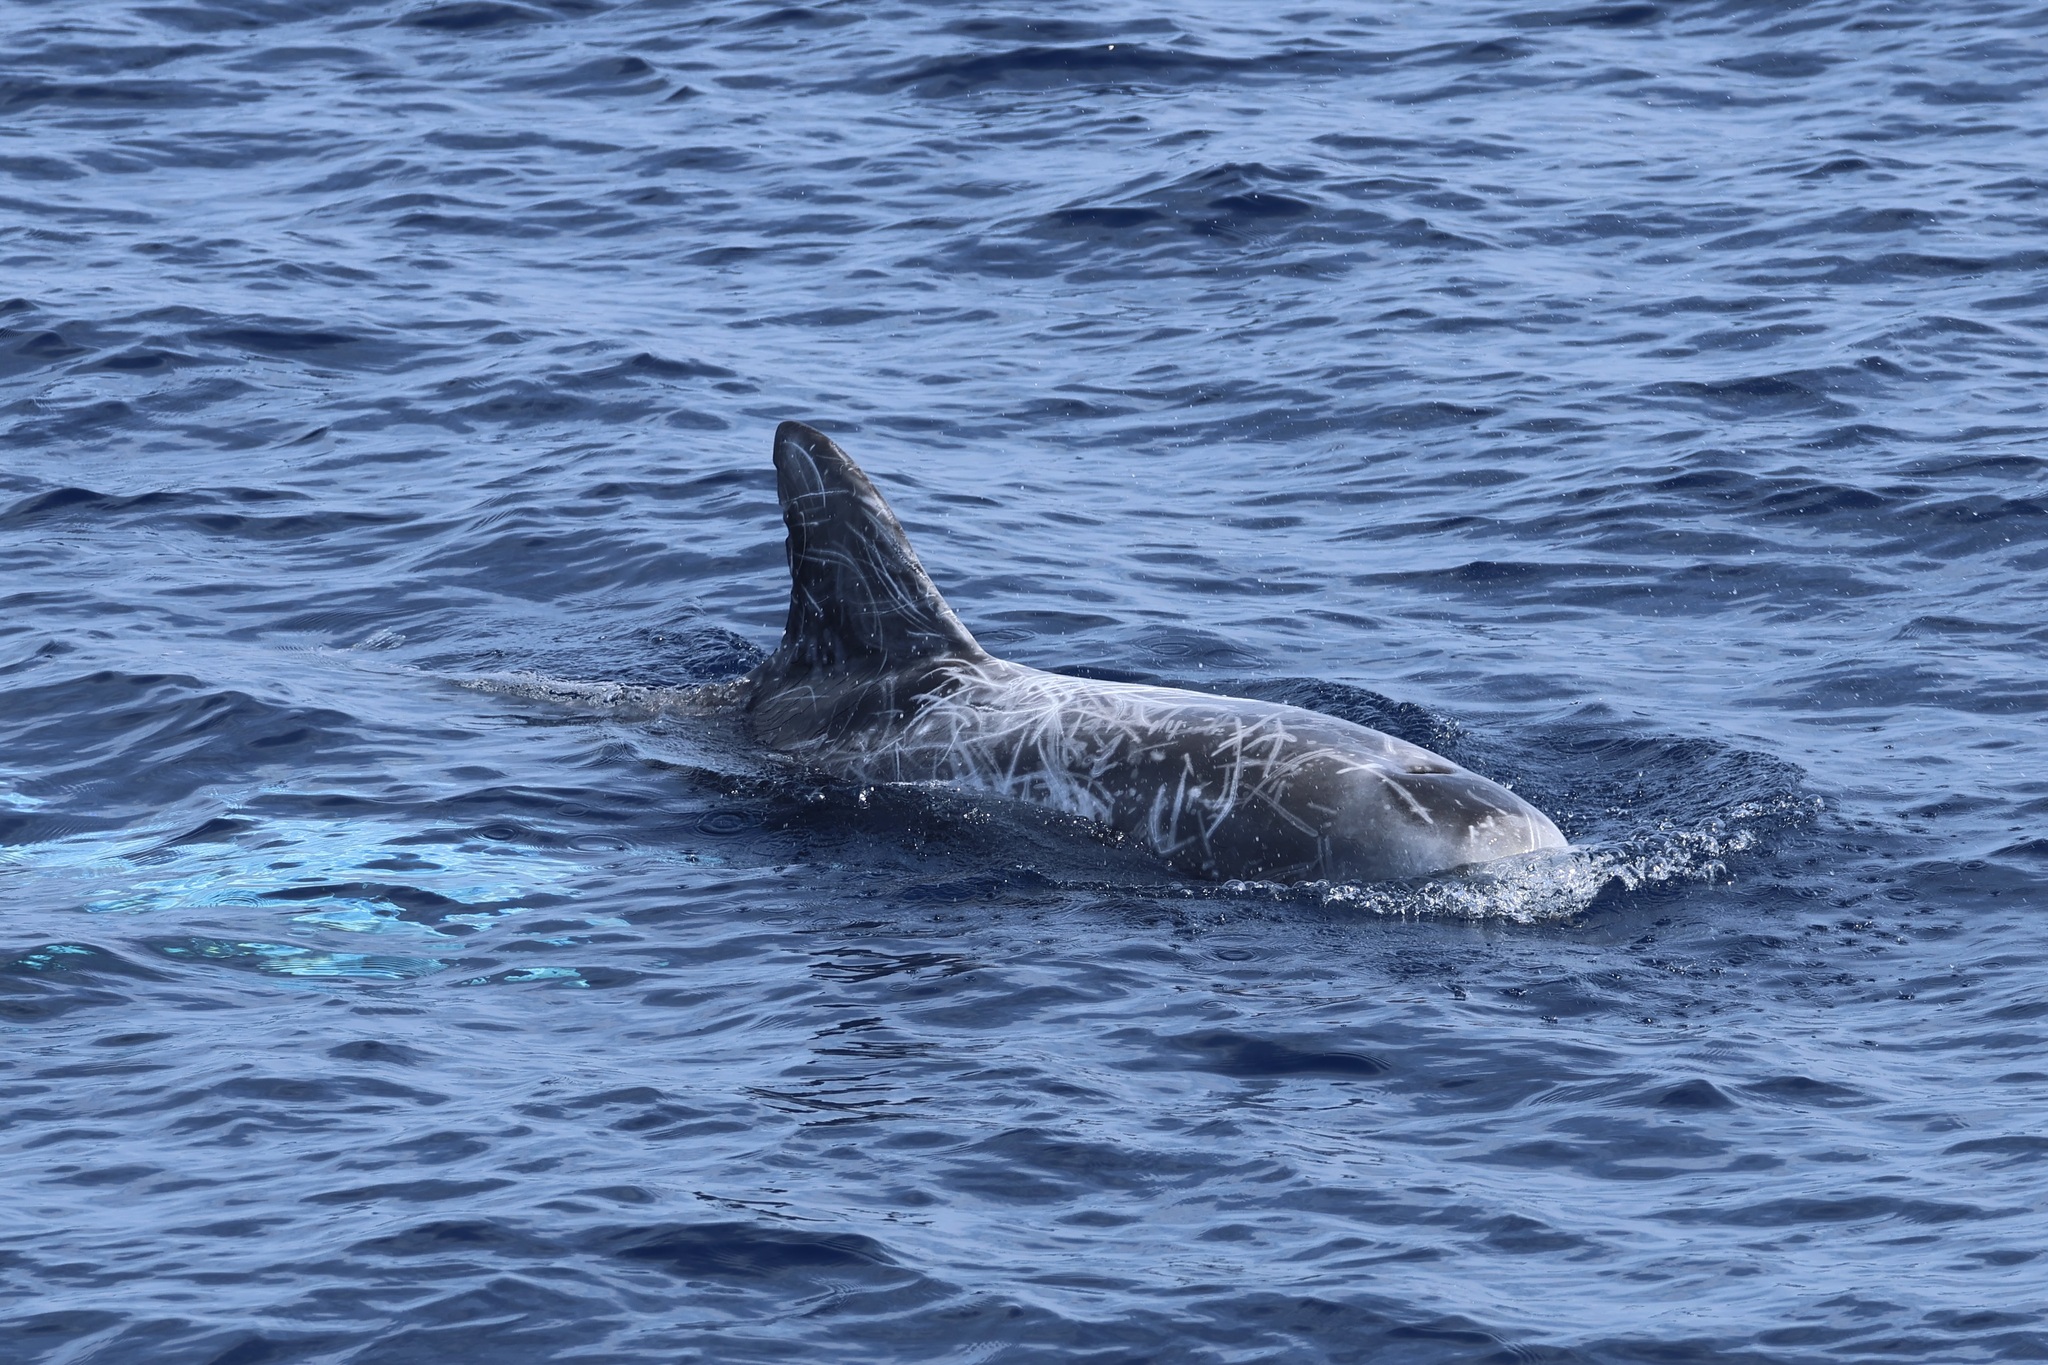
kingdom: Animalia
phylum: Chordata
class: Mammalia
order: Cetacea
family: Delphinidae
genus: Grampus
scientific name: Grampus griseus
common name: Risso's dolphin
